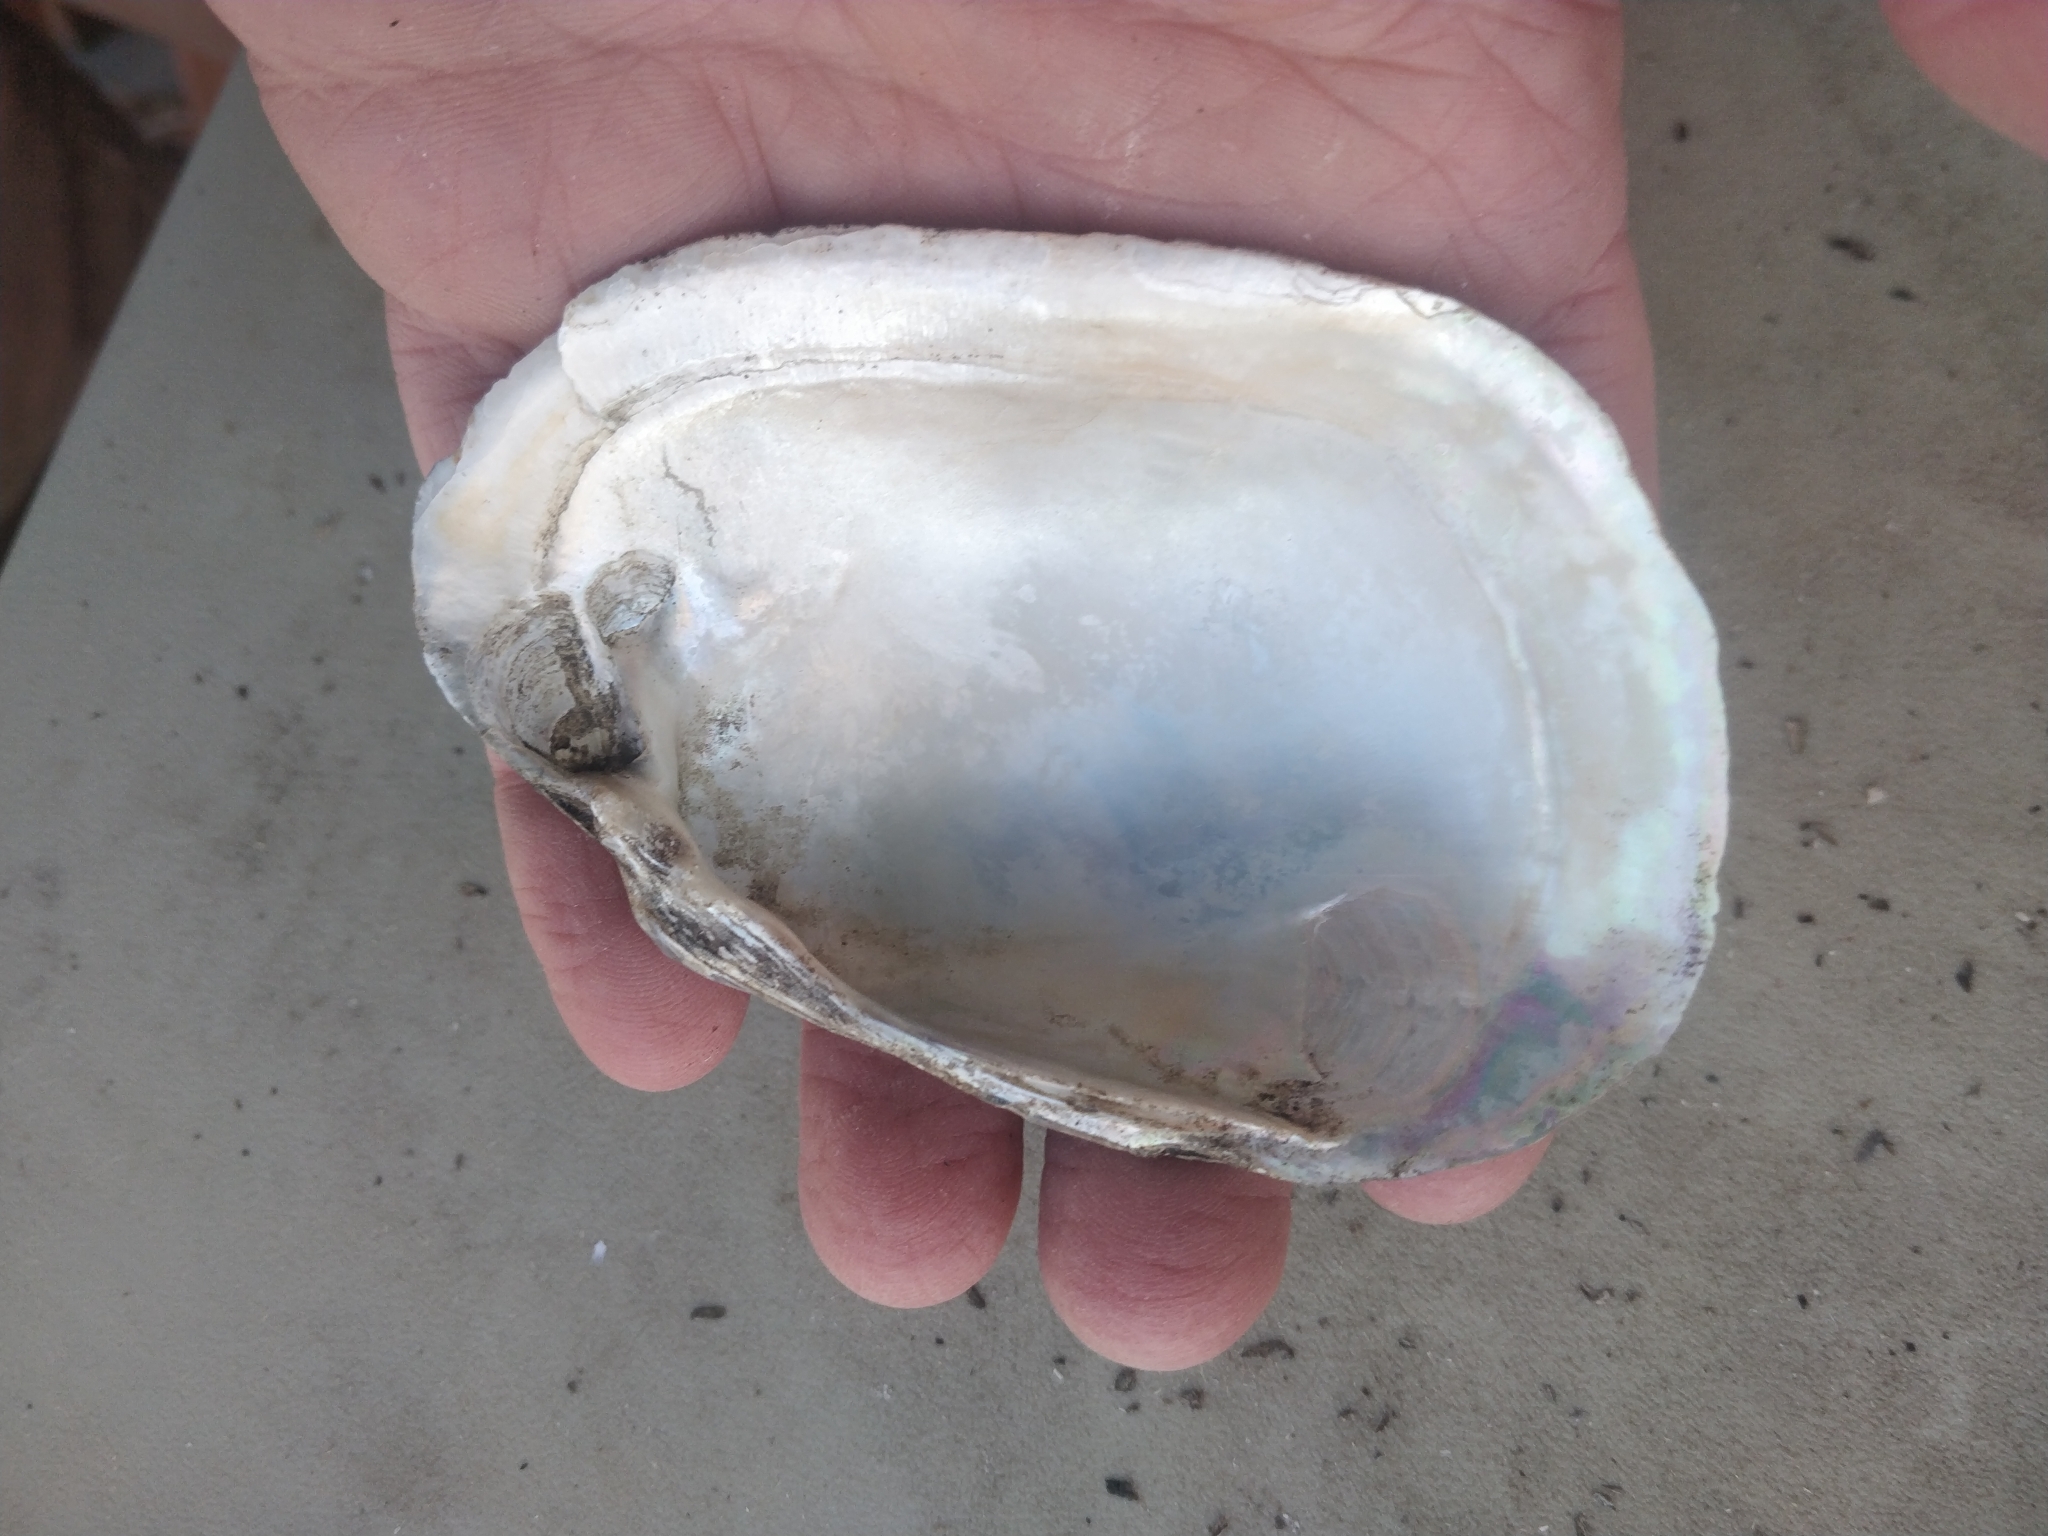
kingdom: Animalia
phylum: Mollusca
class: Bivalvia
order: Unionida
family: Unionidae
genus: Lampsilis
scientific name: Lampsilis cardium
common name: Plain pocketbook
